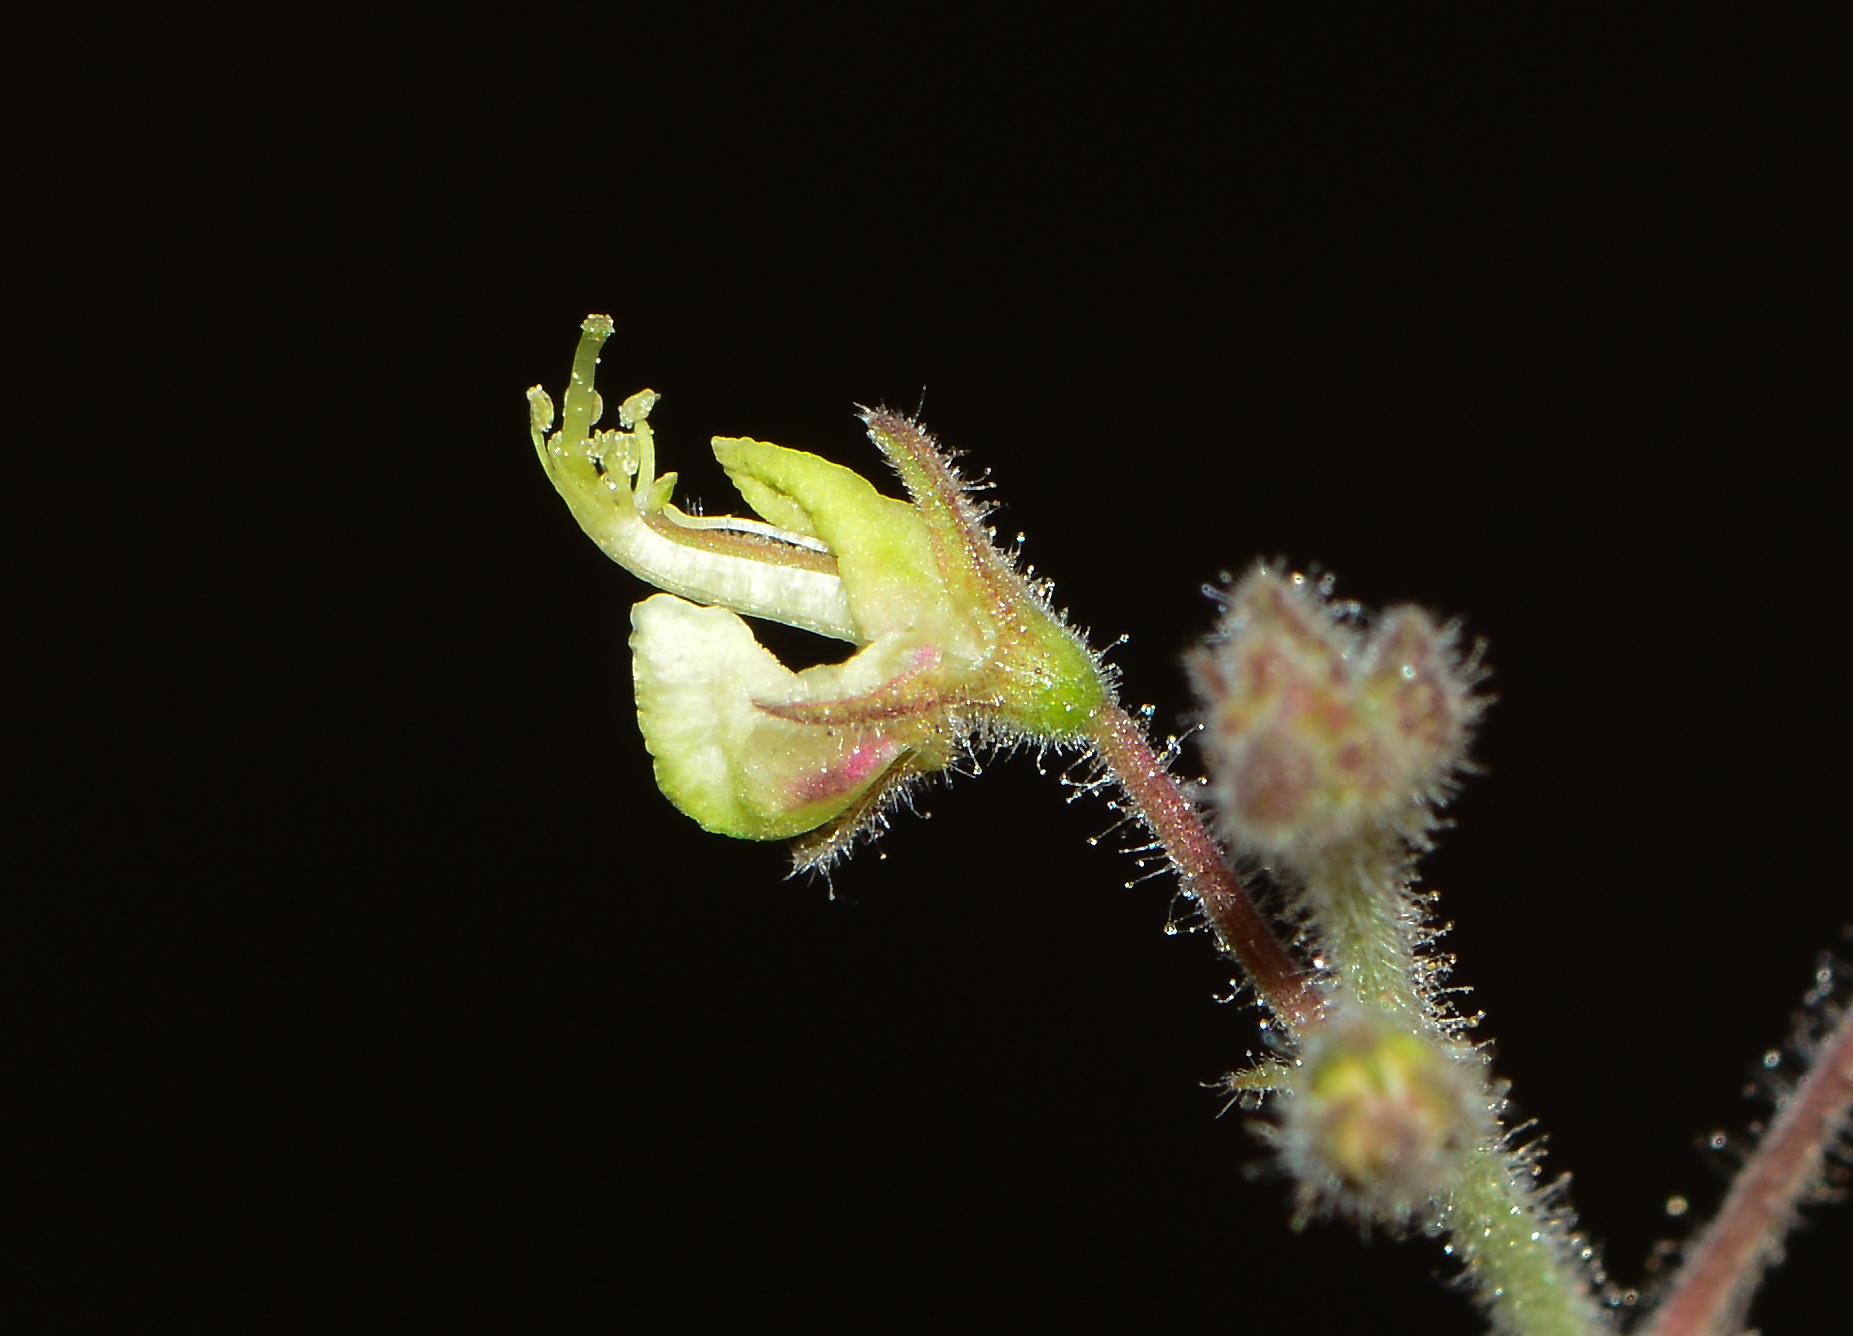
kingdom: Plantae
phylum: Tracheophyta
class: Magnoliopsida
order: Fabales
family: Fabaceae
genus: Desmodium
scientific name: Desmodium scorpiurus
